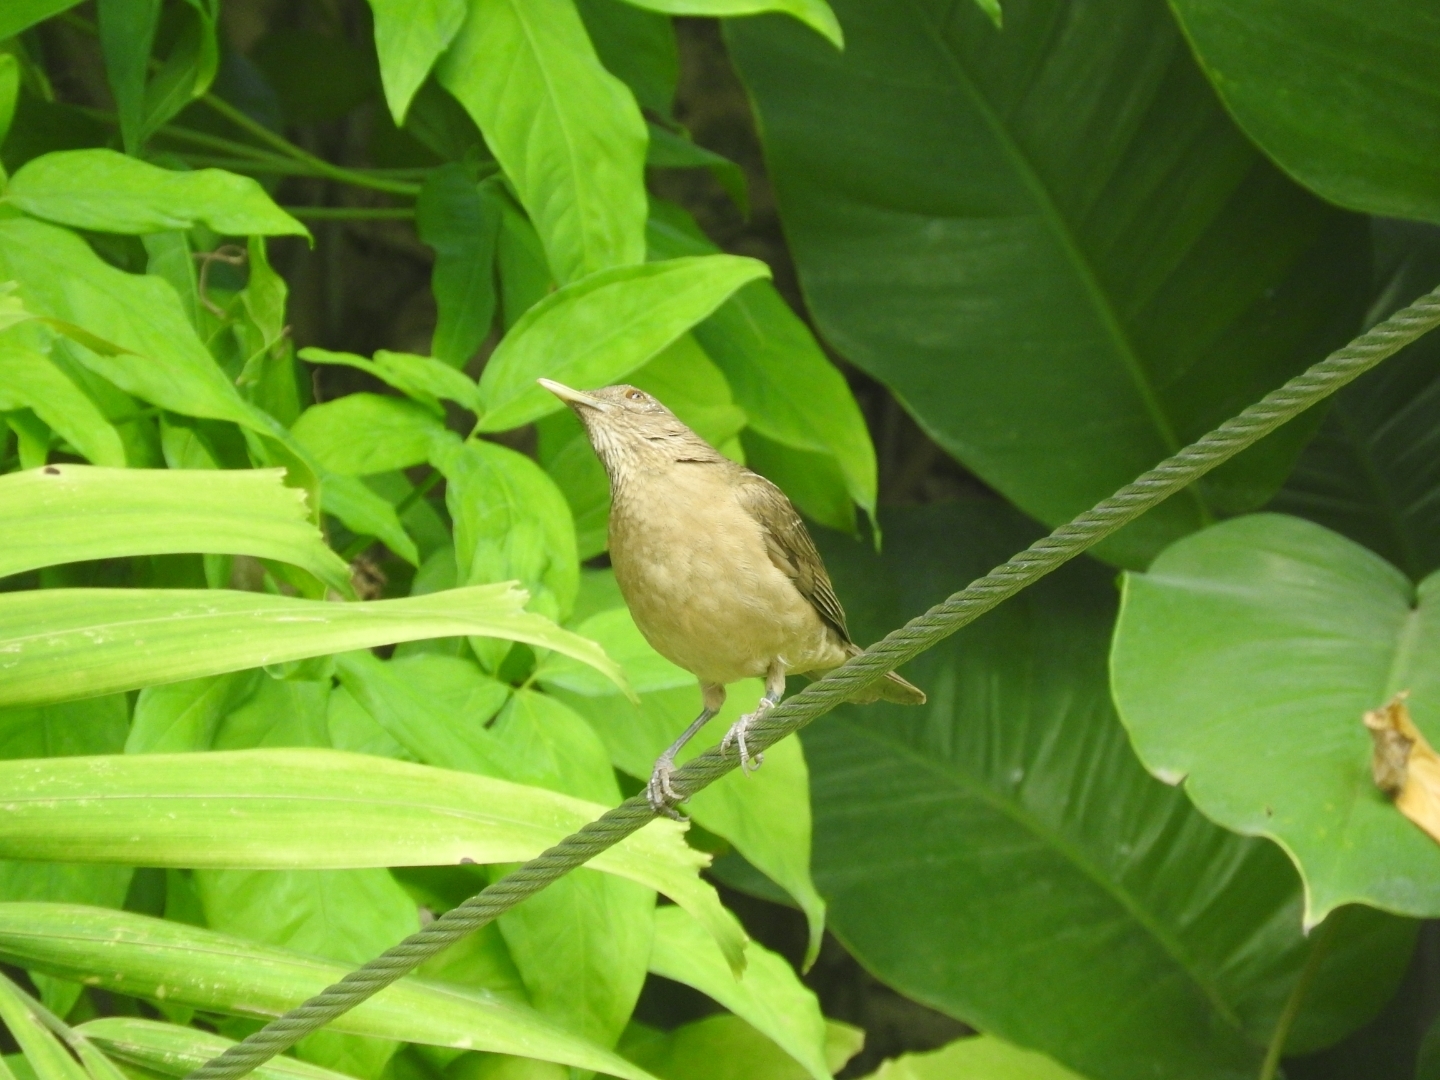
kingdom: Animalia
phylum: Chordata
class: Aves
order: Passeriformes
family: Turdidae
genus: Turdus
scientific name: Turdus grayi
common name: Clay-colored thrush
